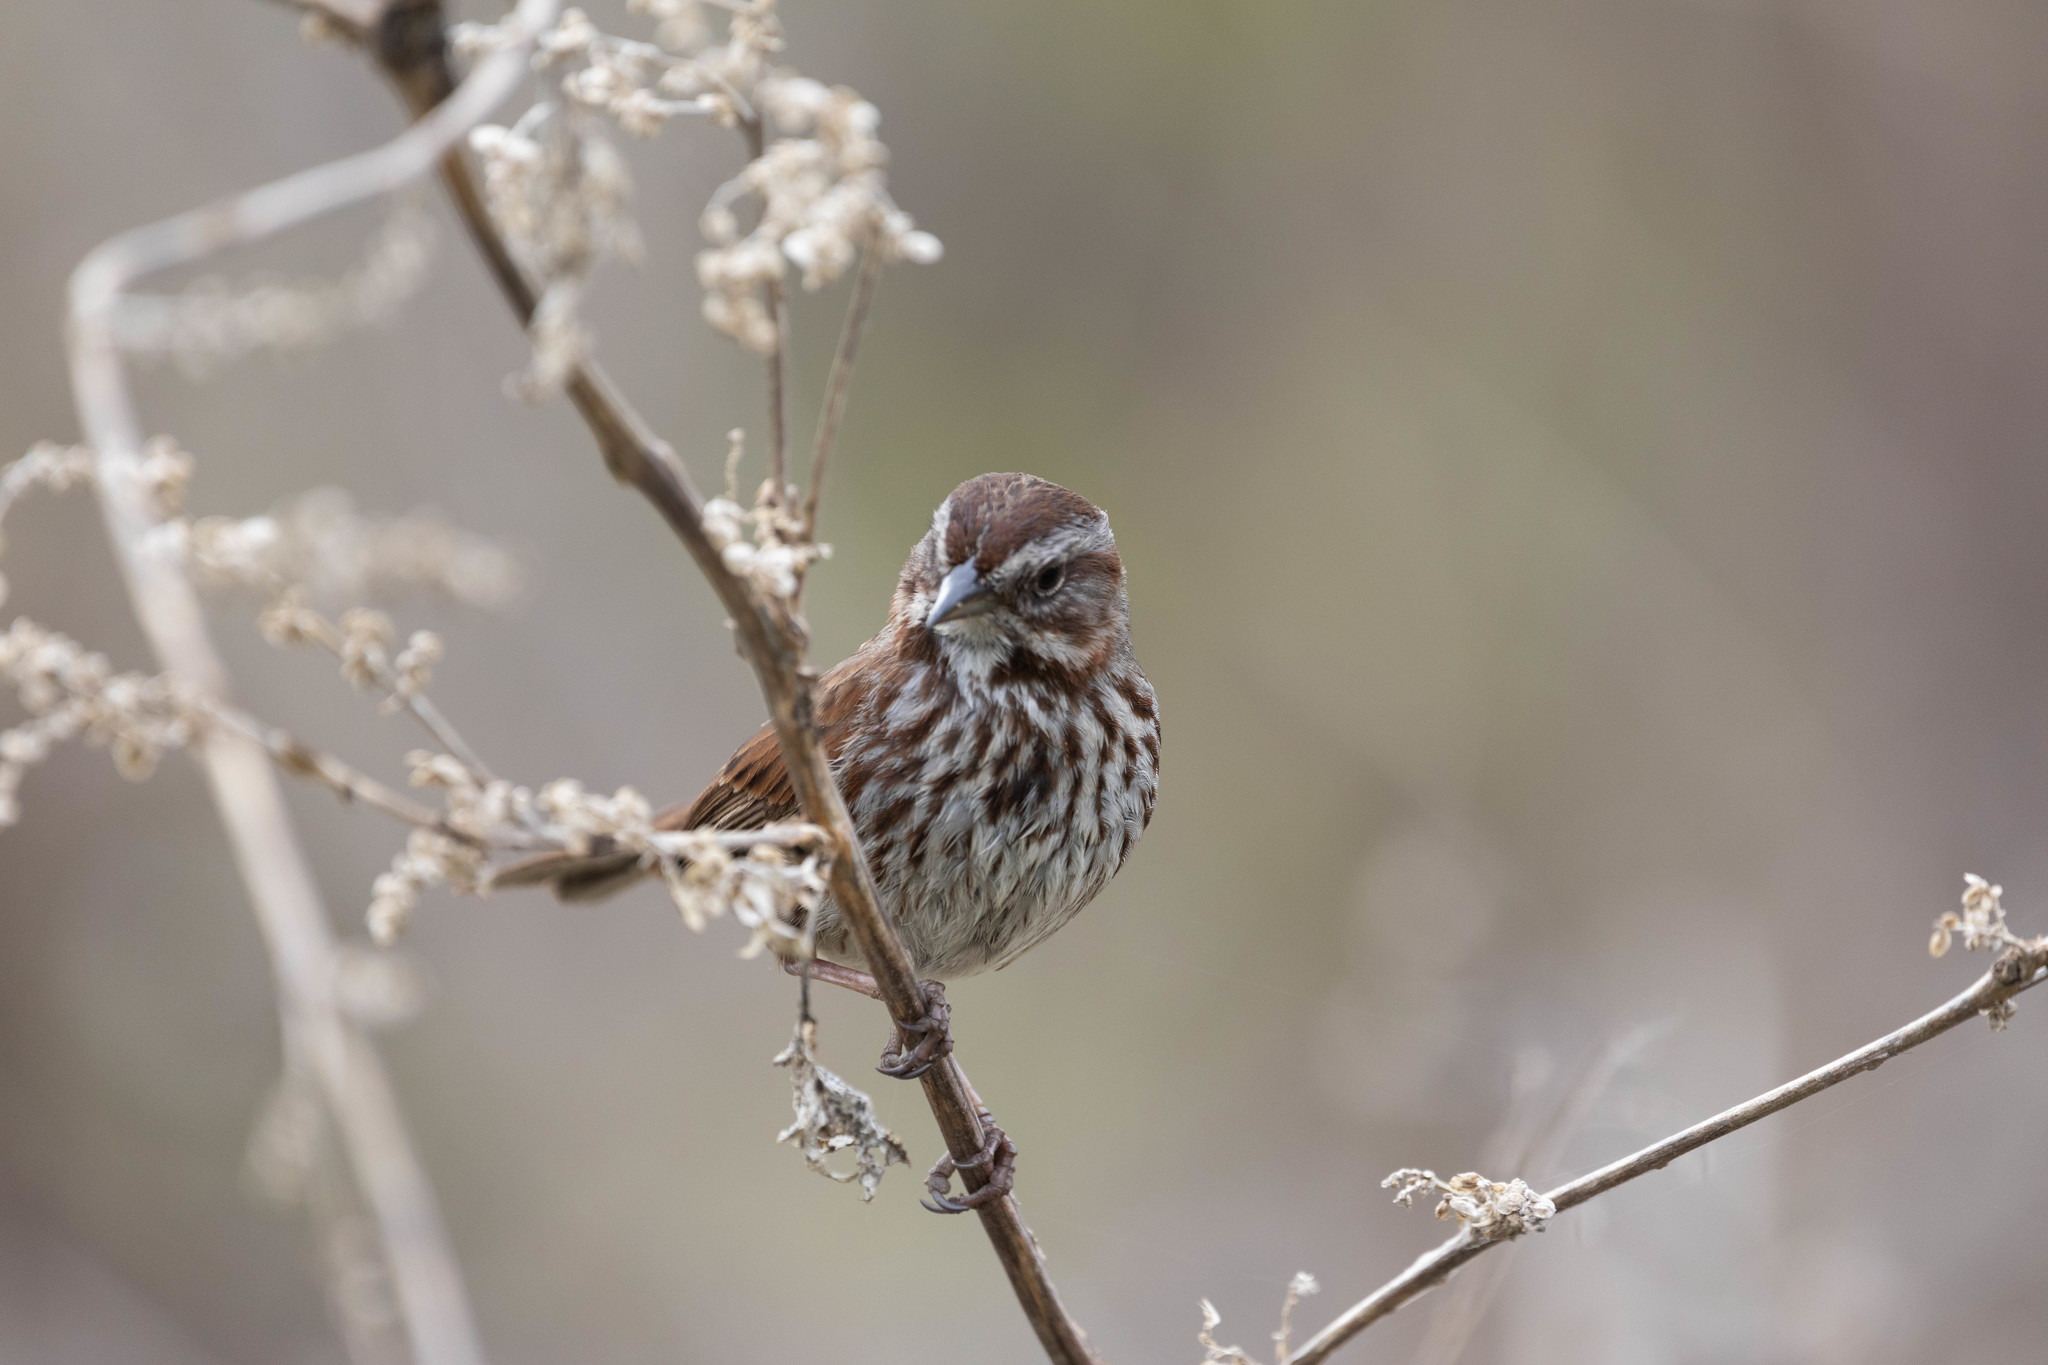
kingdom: Animalia
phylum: Chordata
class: Aves
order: Passeriformes
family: Passerellidae
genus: Melospiza
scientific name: Melospiza melodia
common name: Song sparrow
